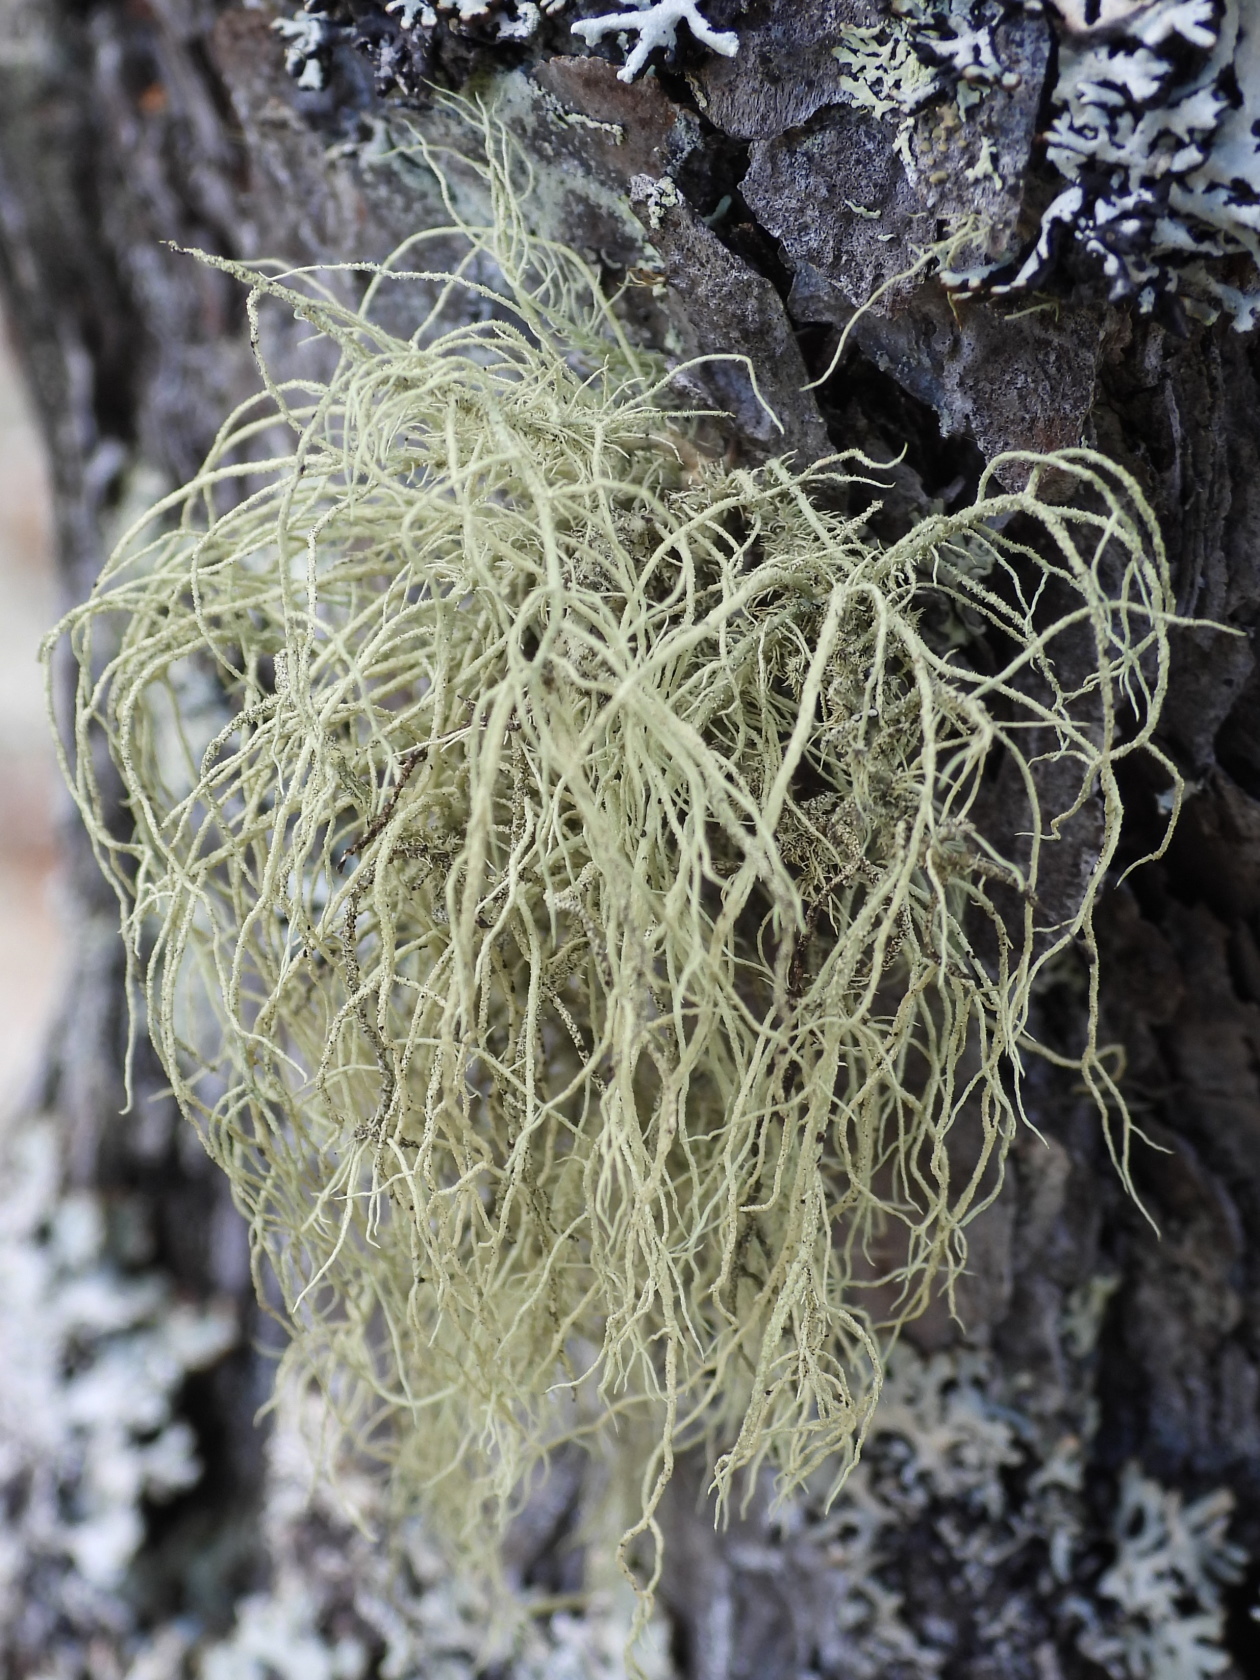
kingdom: Fungi
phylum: Ascomycota
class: Lecanoromycetes
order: Lecanorales
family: Parmeliaceae
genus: Usnea
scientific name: Usnea hirta
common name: Bristly beard lichen
